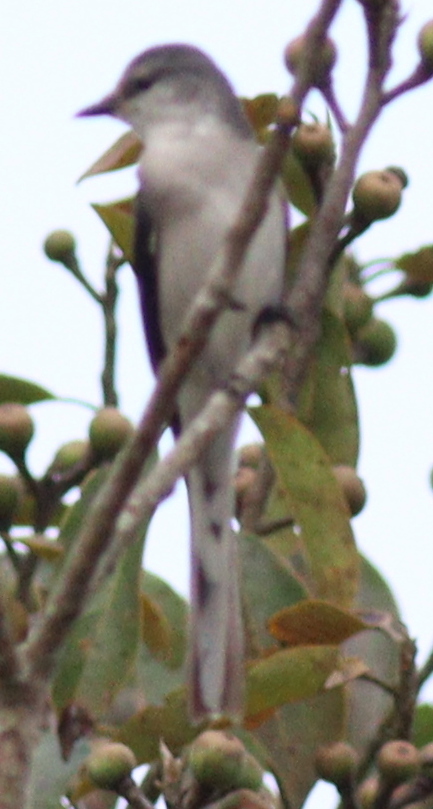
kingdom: Animalia
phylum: Chordata
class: Aves
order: Passeriformes
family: Campephagidae
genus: Pericrocotus
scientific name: Pericrocotus divaricatus
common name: Ashy minivet
